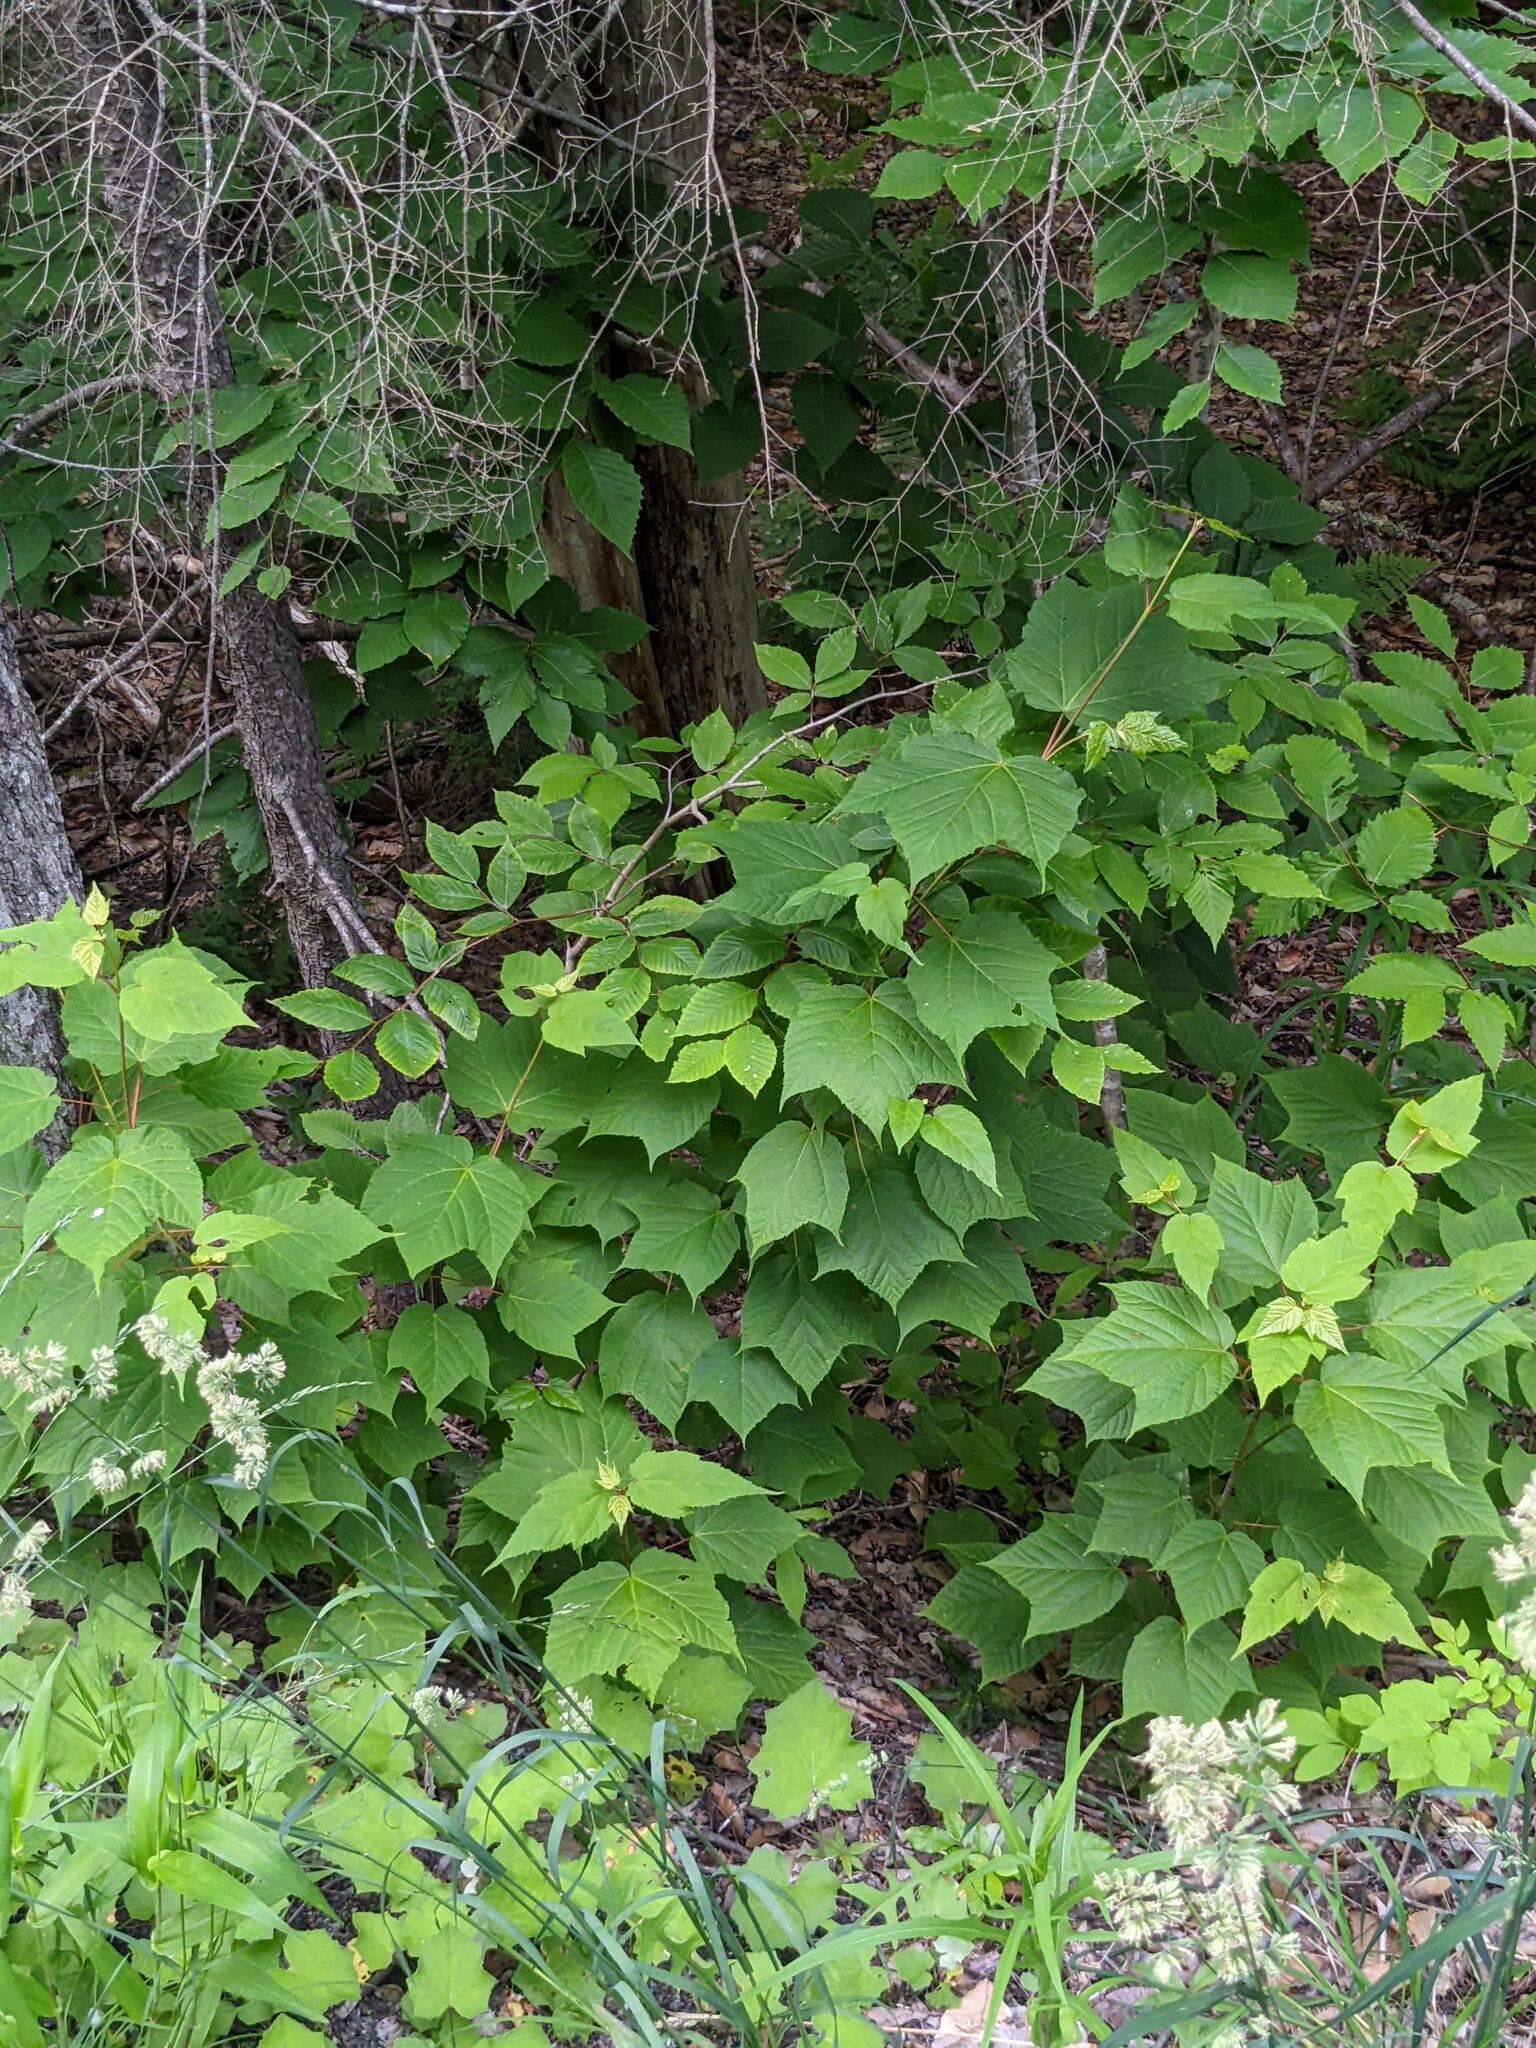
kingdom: Plantae
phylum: Tracheophyta
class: Magnoliopsida
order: Sapindales
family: Sapindaceae
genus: Acer
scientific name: Acer pensylvanicum
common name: Moosewood
